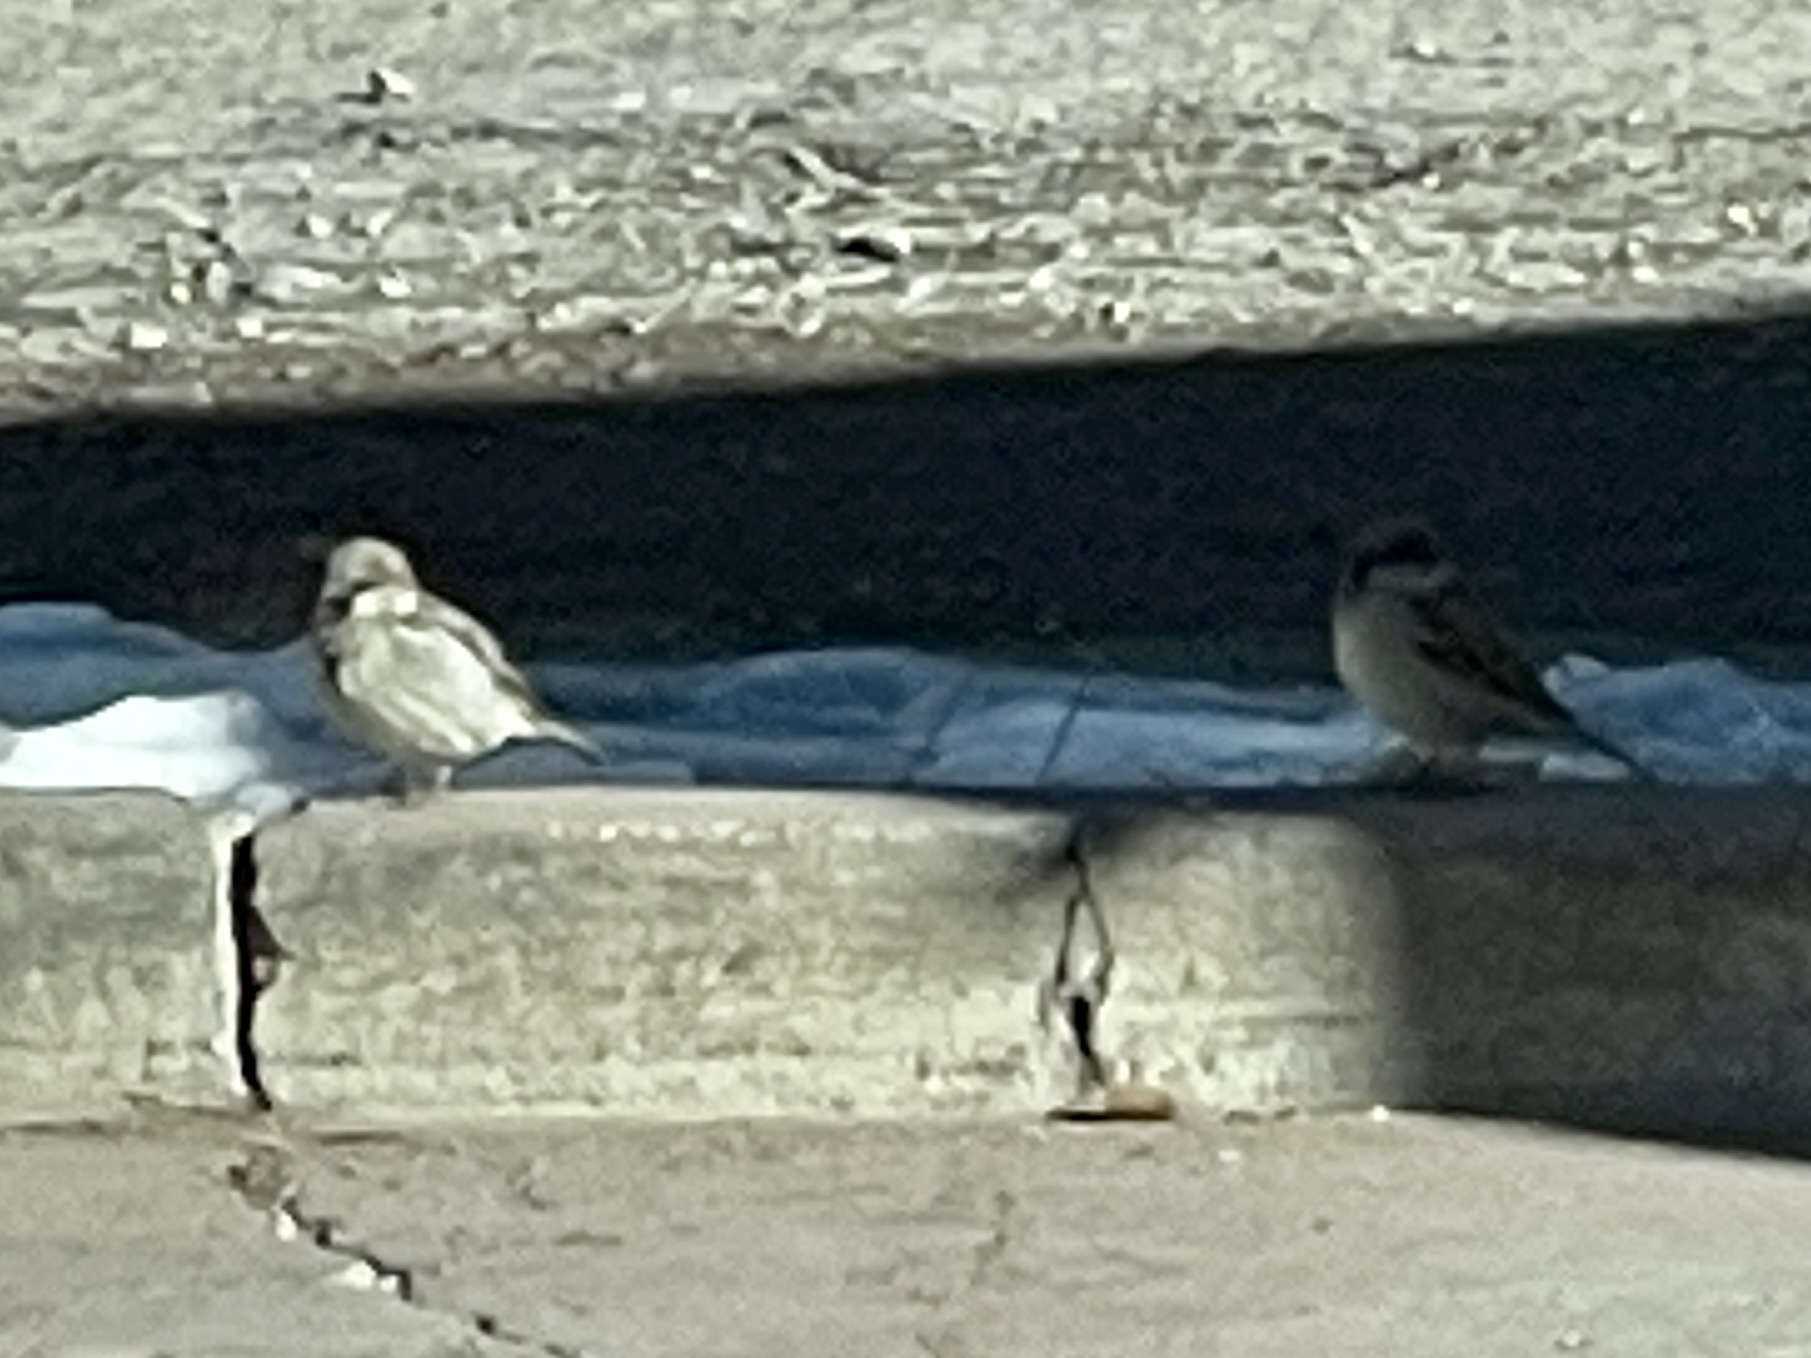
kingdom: Animalia
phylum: Chordata
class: Aves
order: Passeriformes
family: Passeridae
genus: Passer
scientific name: Passer domesticus
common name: House sparrow
